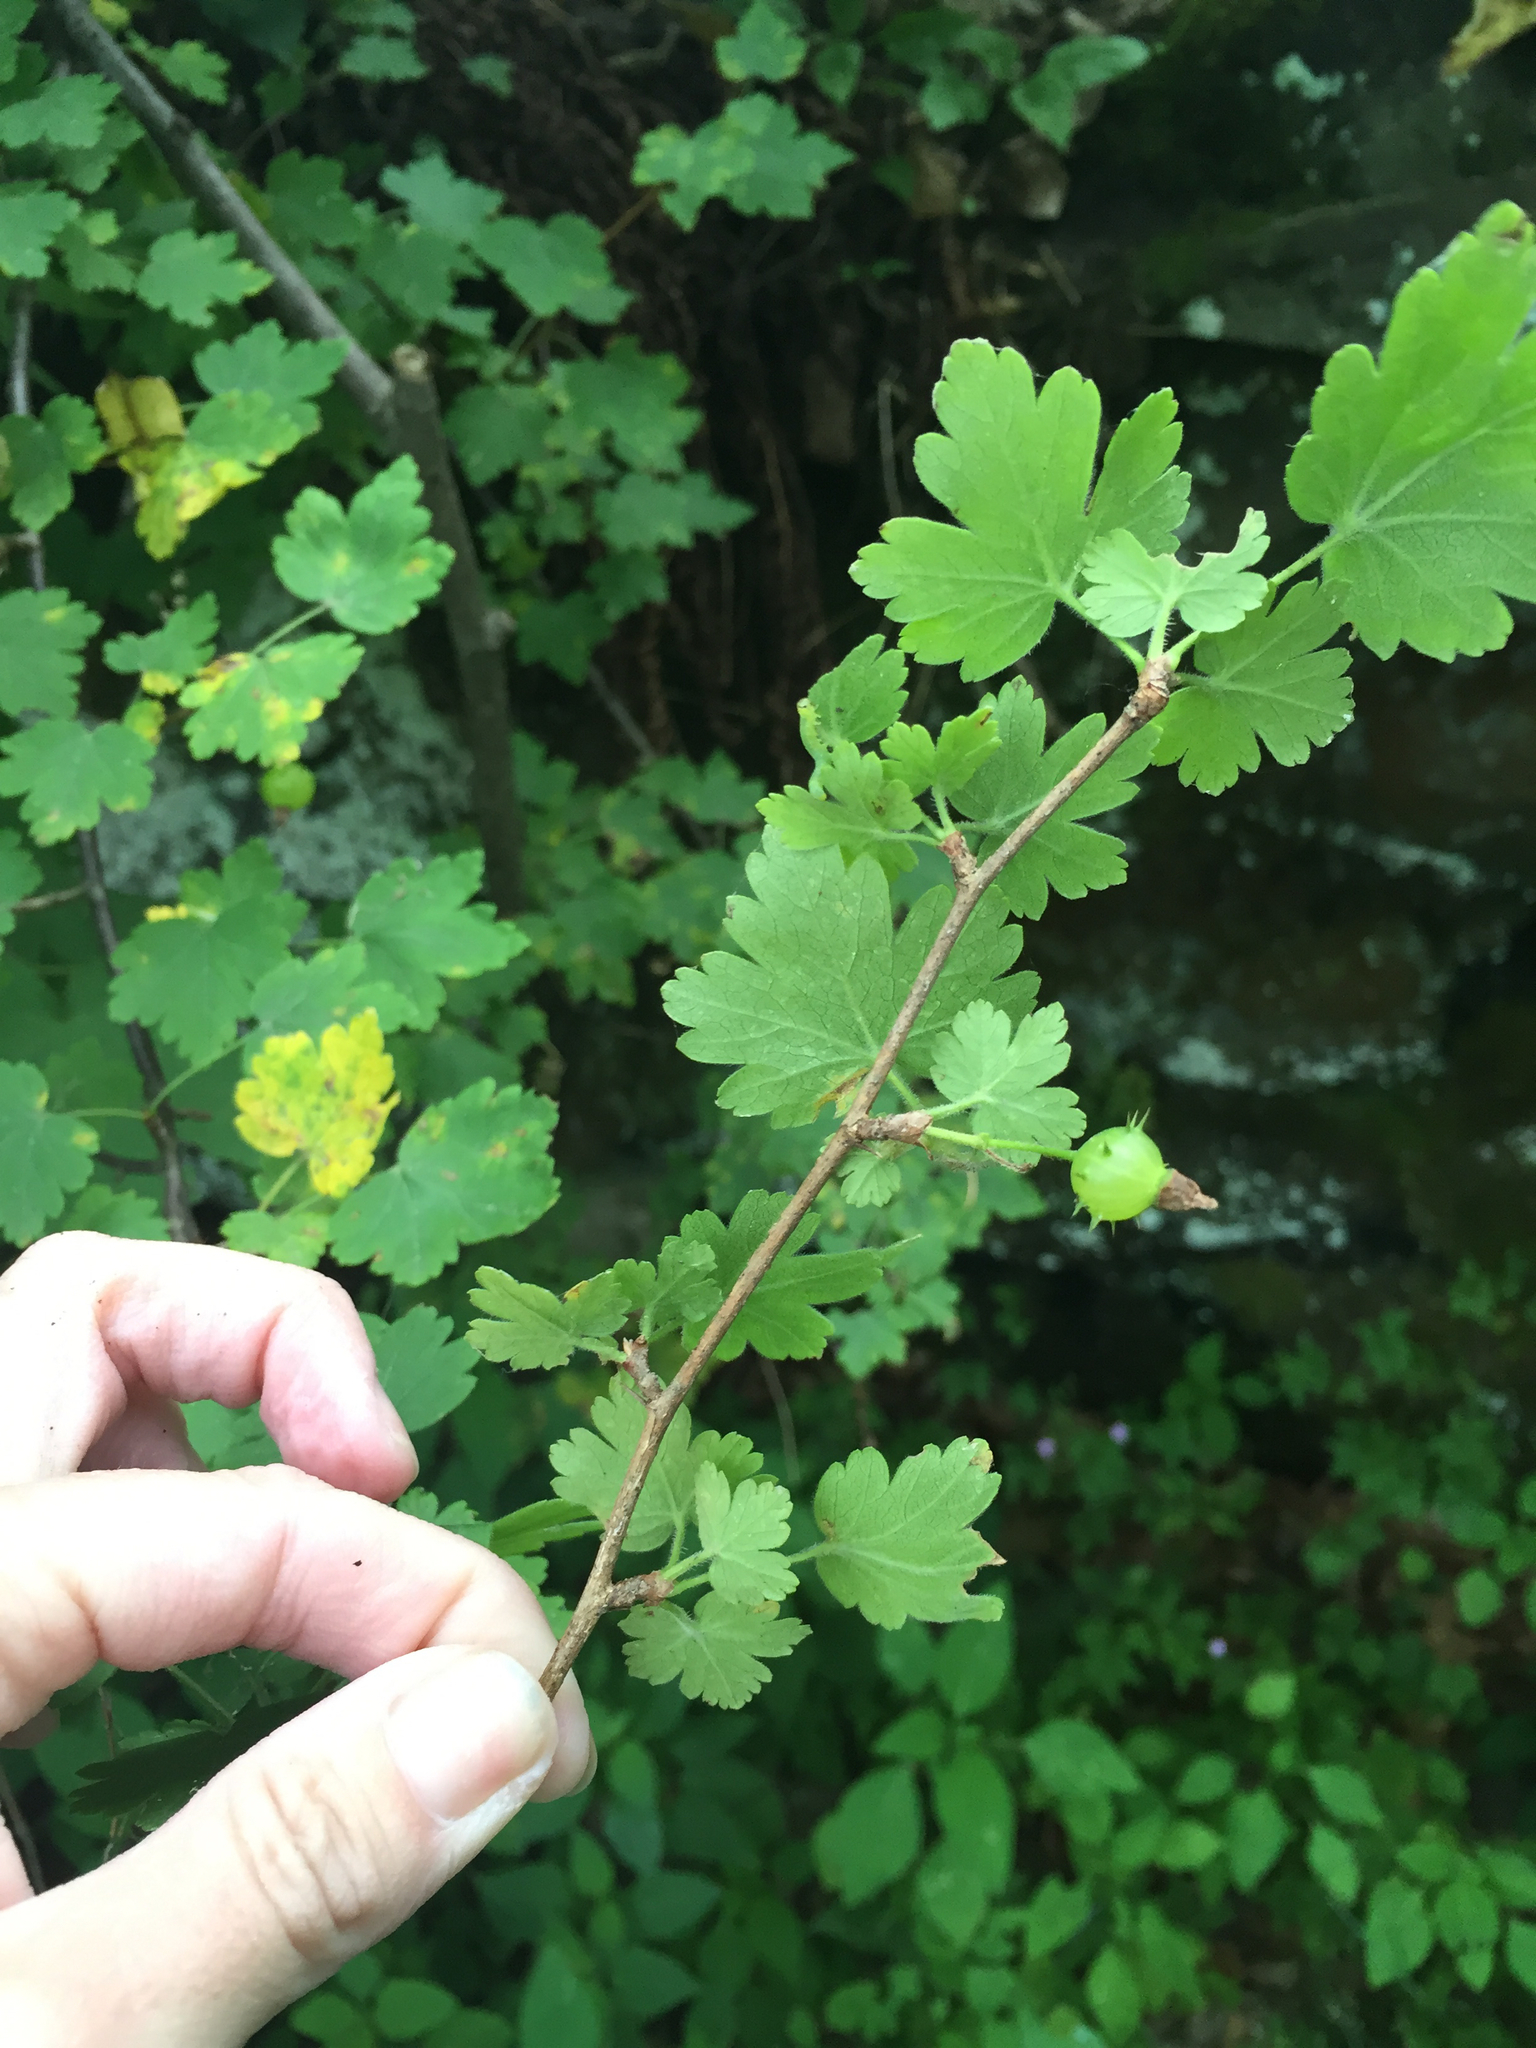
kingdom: Plantae
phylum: Tracheophyta
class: Magnoliopsida
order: Saxifragales
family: Grossulariaceae
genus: Ribes
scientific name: Ribes uva-crispa
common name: Gooseberry
